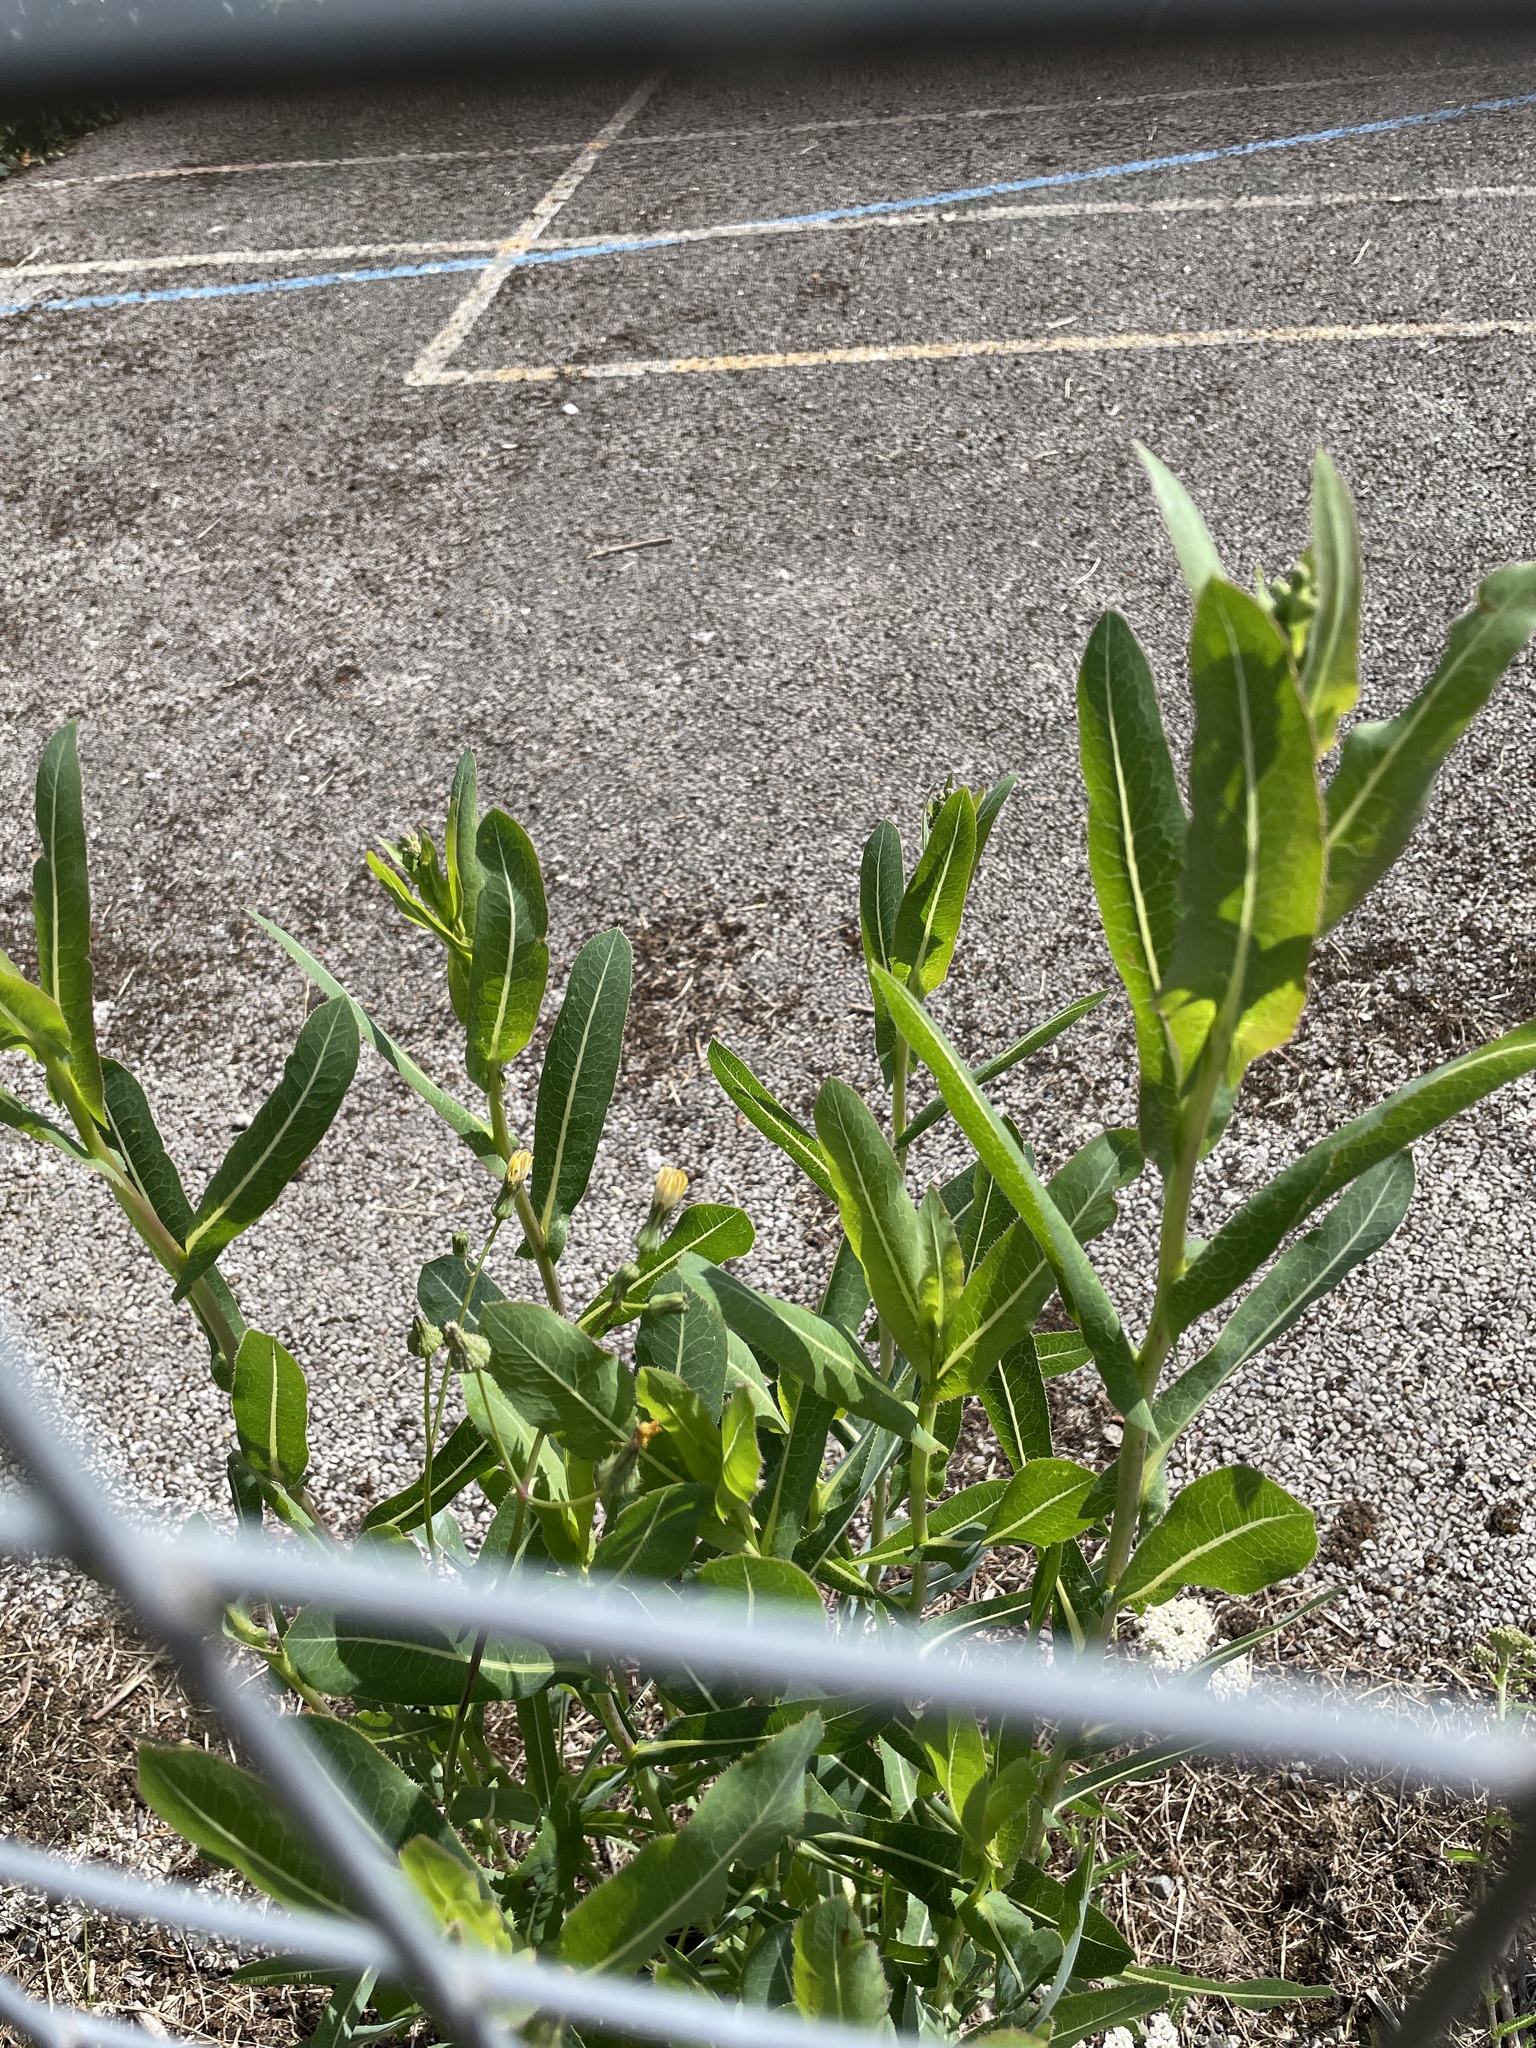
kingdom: Plantae
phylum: Tracheophyta
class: Magnoliopsida
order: Asterales
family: Asteraceae
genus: Lactuca
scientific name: Lactuca serriola
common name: Prickly lettuce
